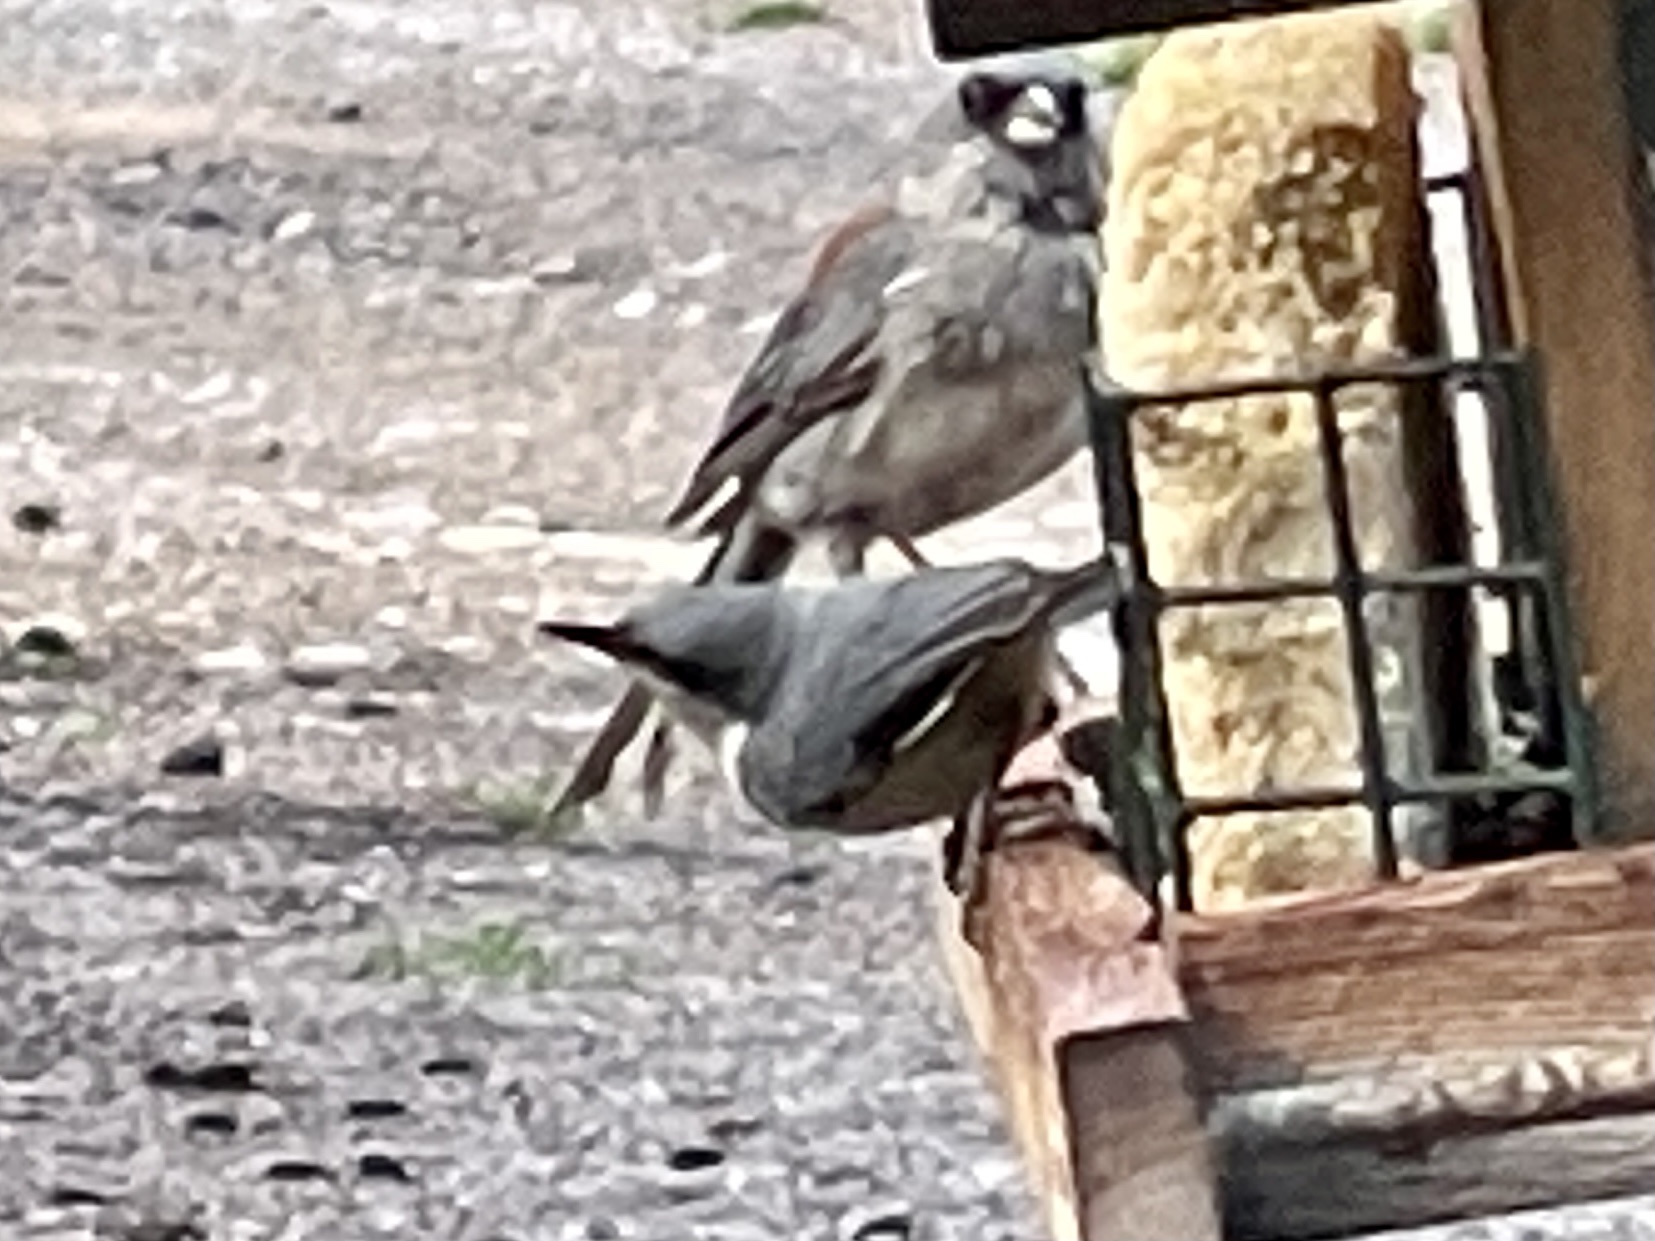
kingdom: Animalia
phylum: Chordata
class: Aves
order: Passeriformes
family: Sittidae
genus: Sitta
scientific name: Sitta pygmaea
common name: Pygmy nuthatch
